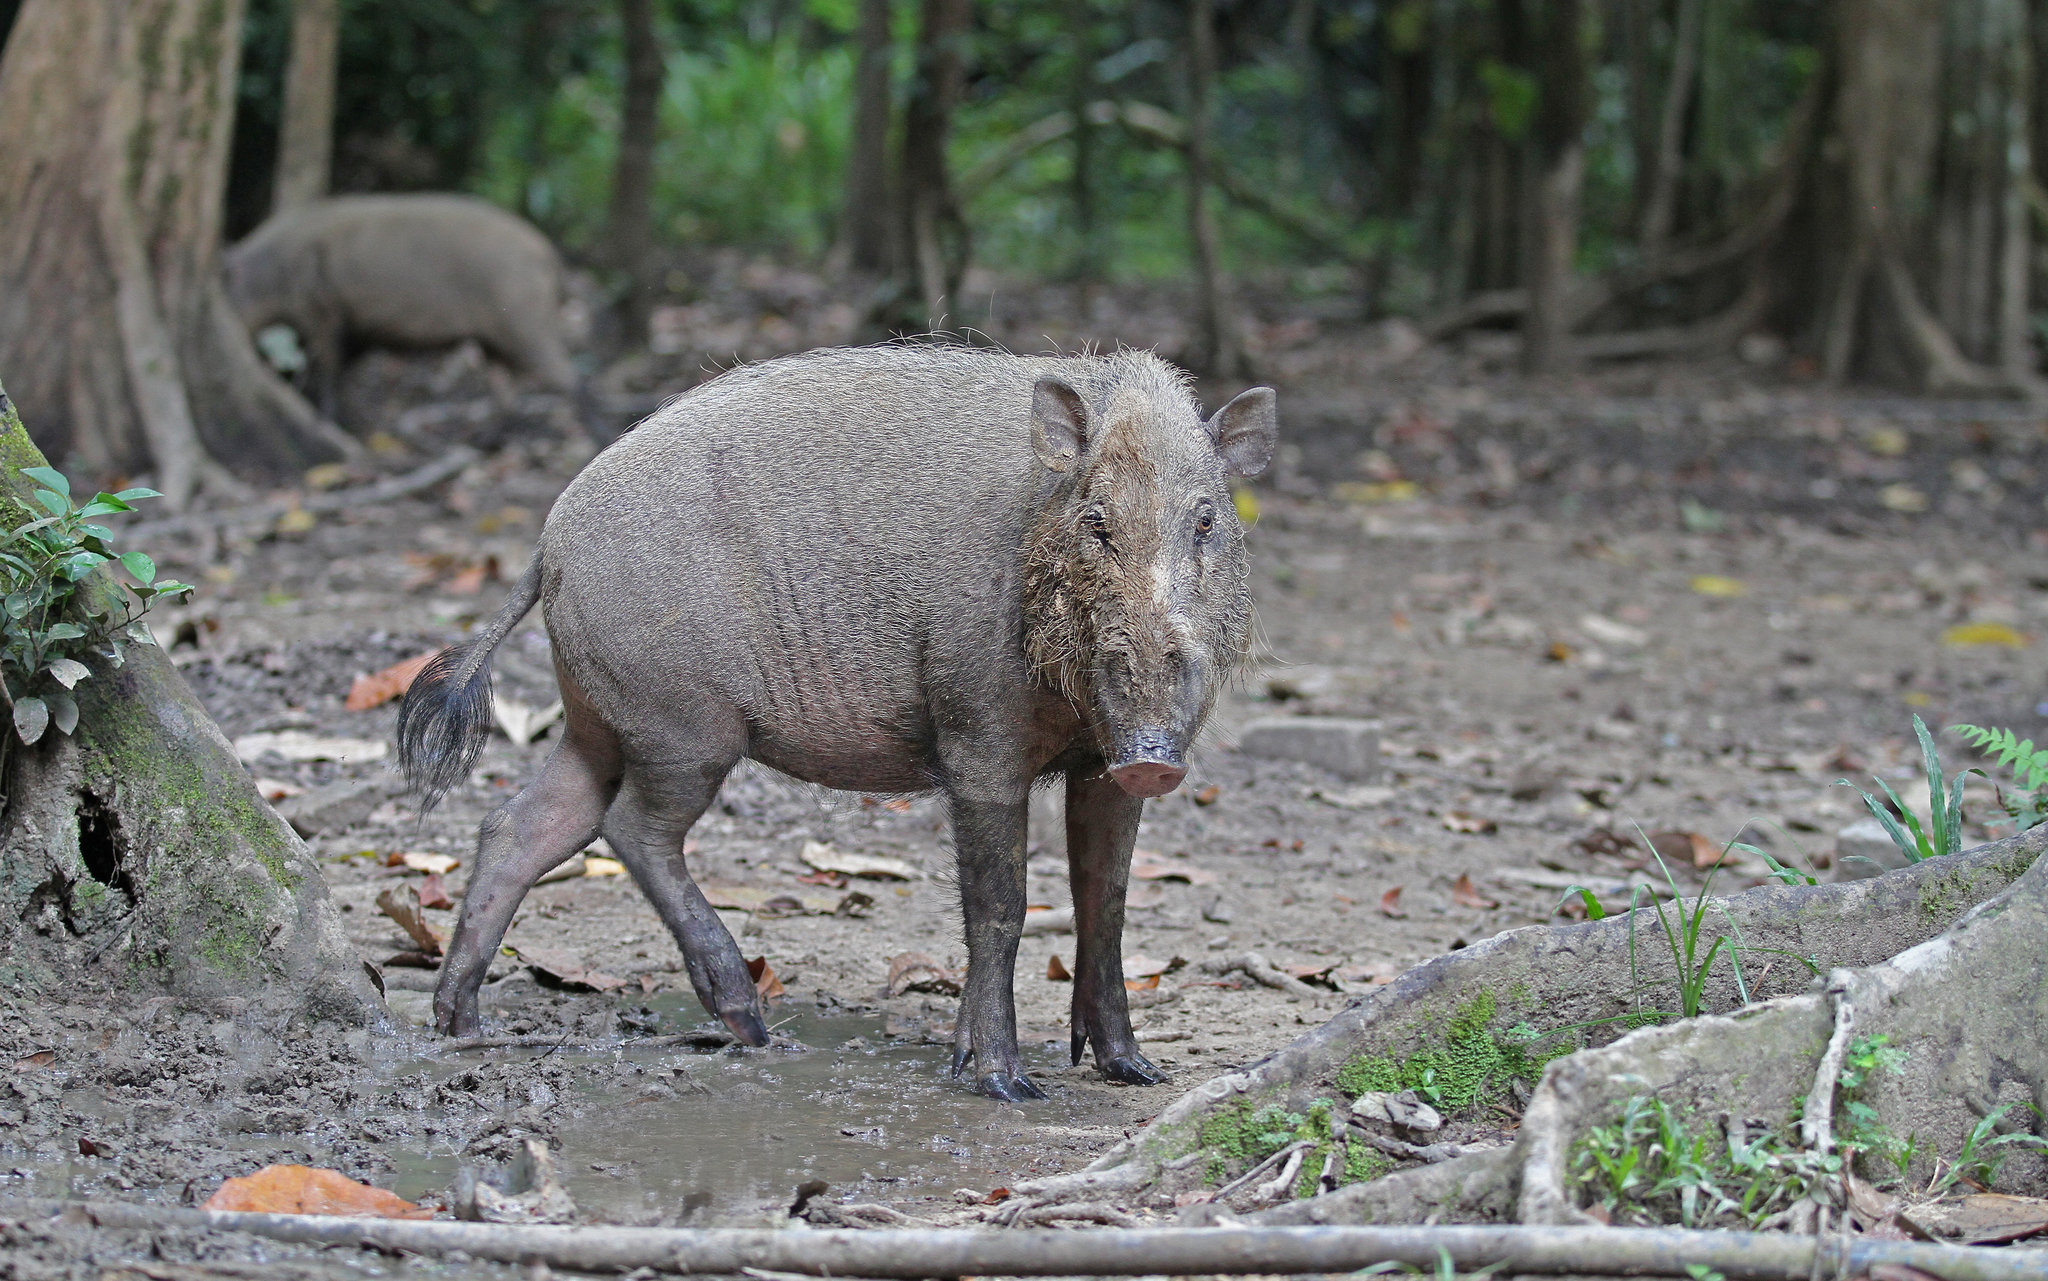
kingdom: Animalia
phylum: Chordata
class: Mammalia
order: Artiodactyla
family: Suidae
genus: Sus
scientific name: Sus barbatus
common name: Bearded pig
